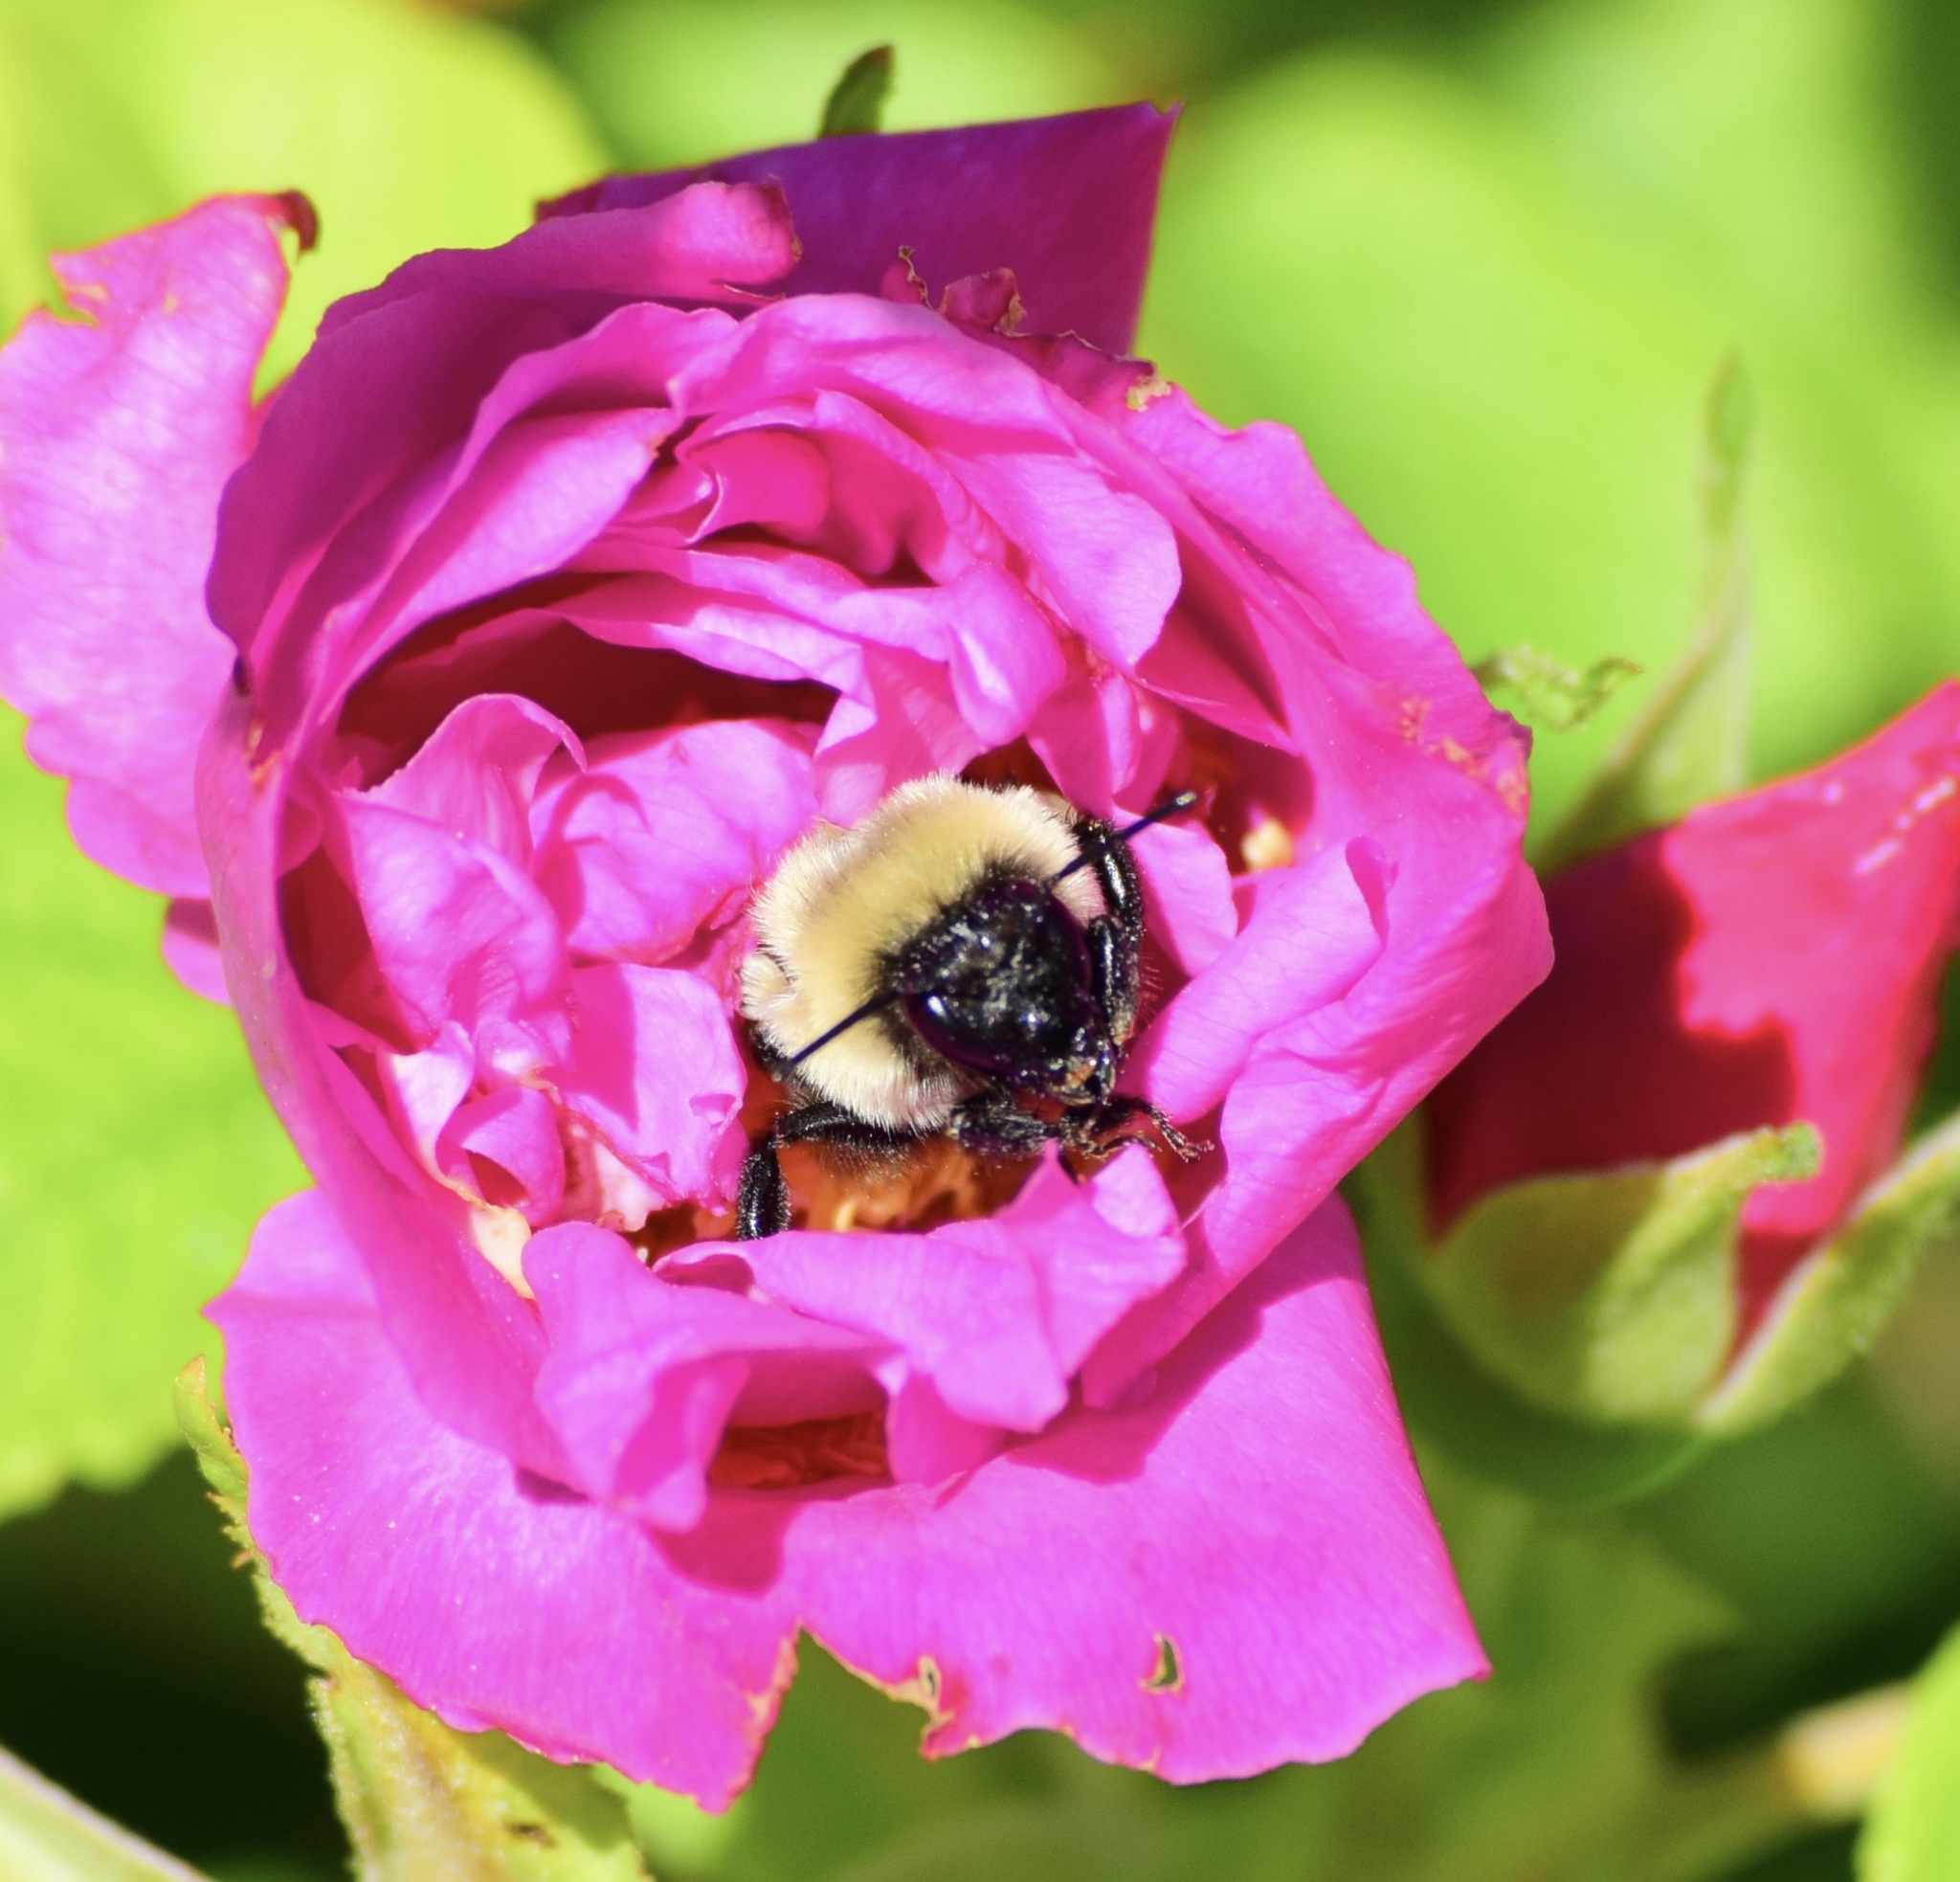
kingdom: Animalia
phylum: Arthropoda
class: Insecta
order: Hymenoptera
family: Apidae
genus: Bombus
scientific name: Bombus impatiens
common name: Common eastern bumble bee
